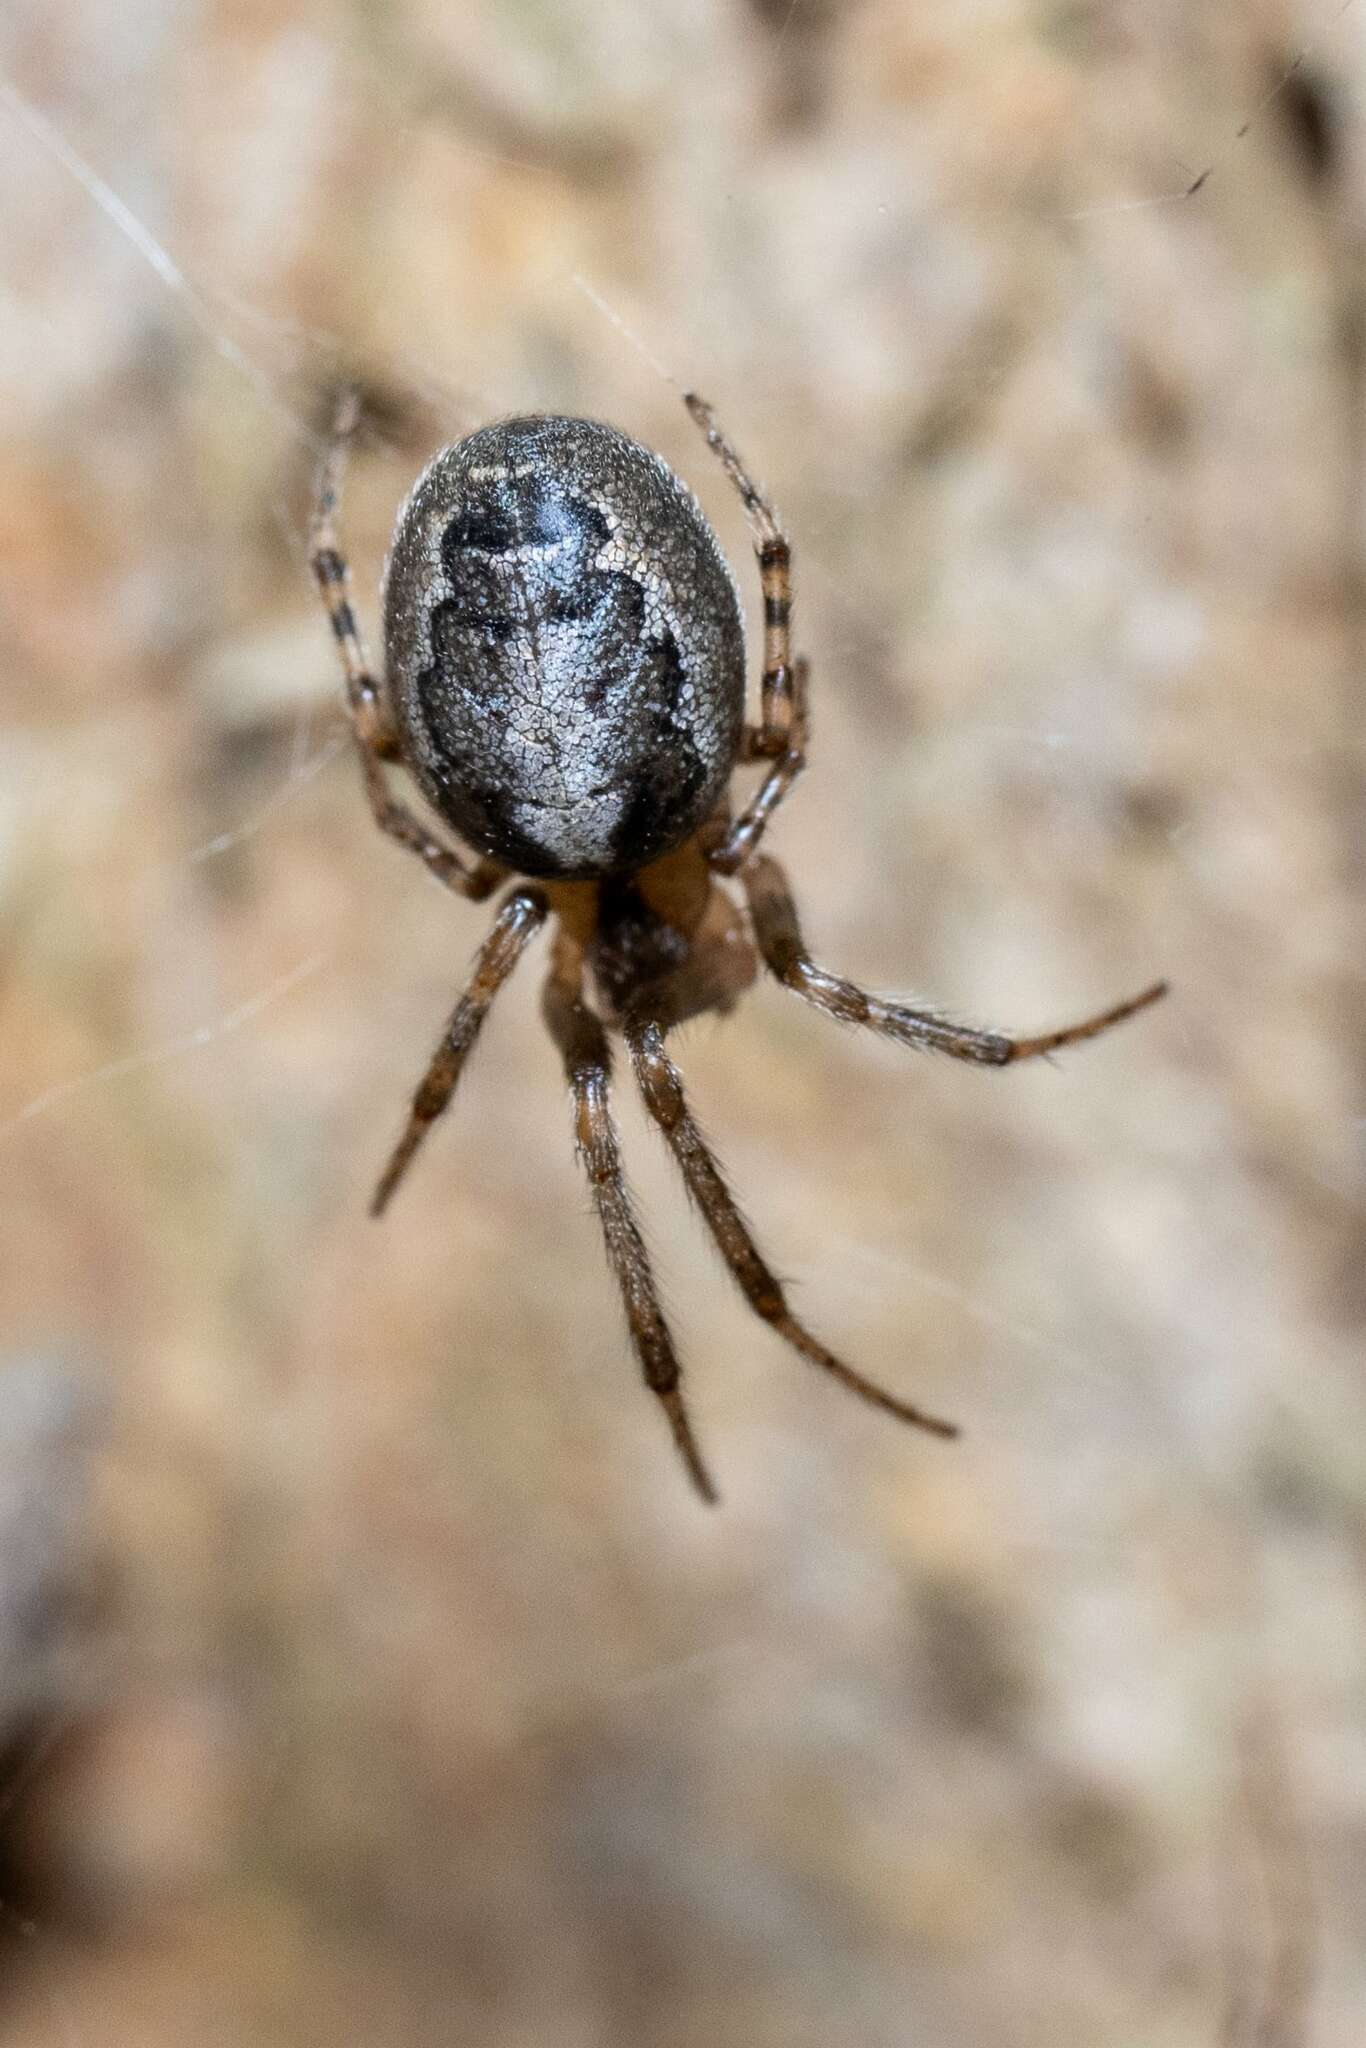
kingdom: Animalia
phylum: Arthropoda
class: Arachnida
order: Araneae
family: Araneidae
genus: Zygiella
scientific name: Zygiella x-notata
